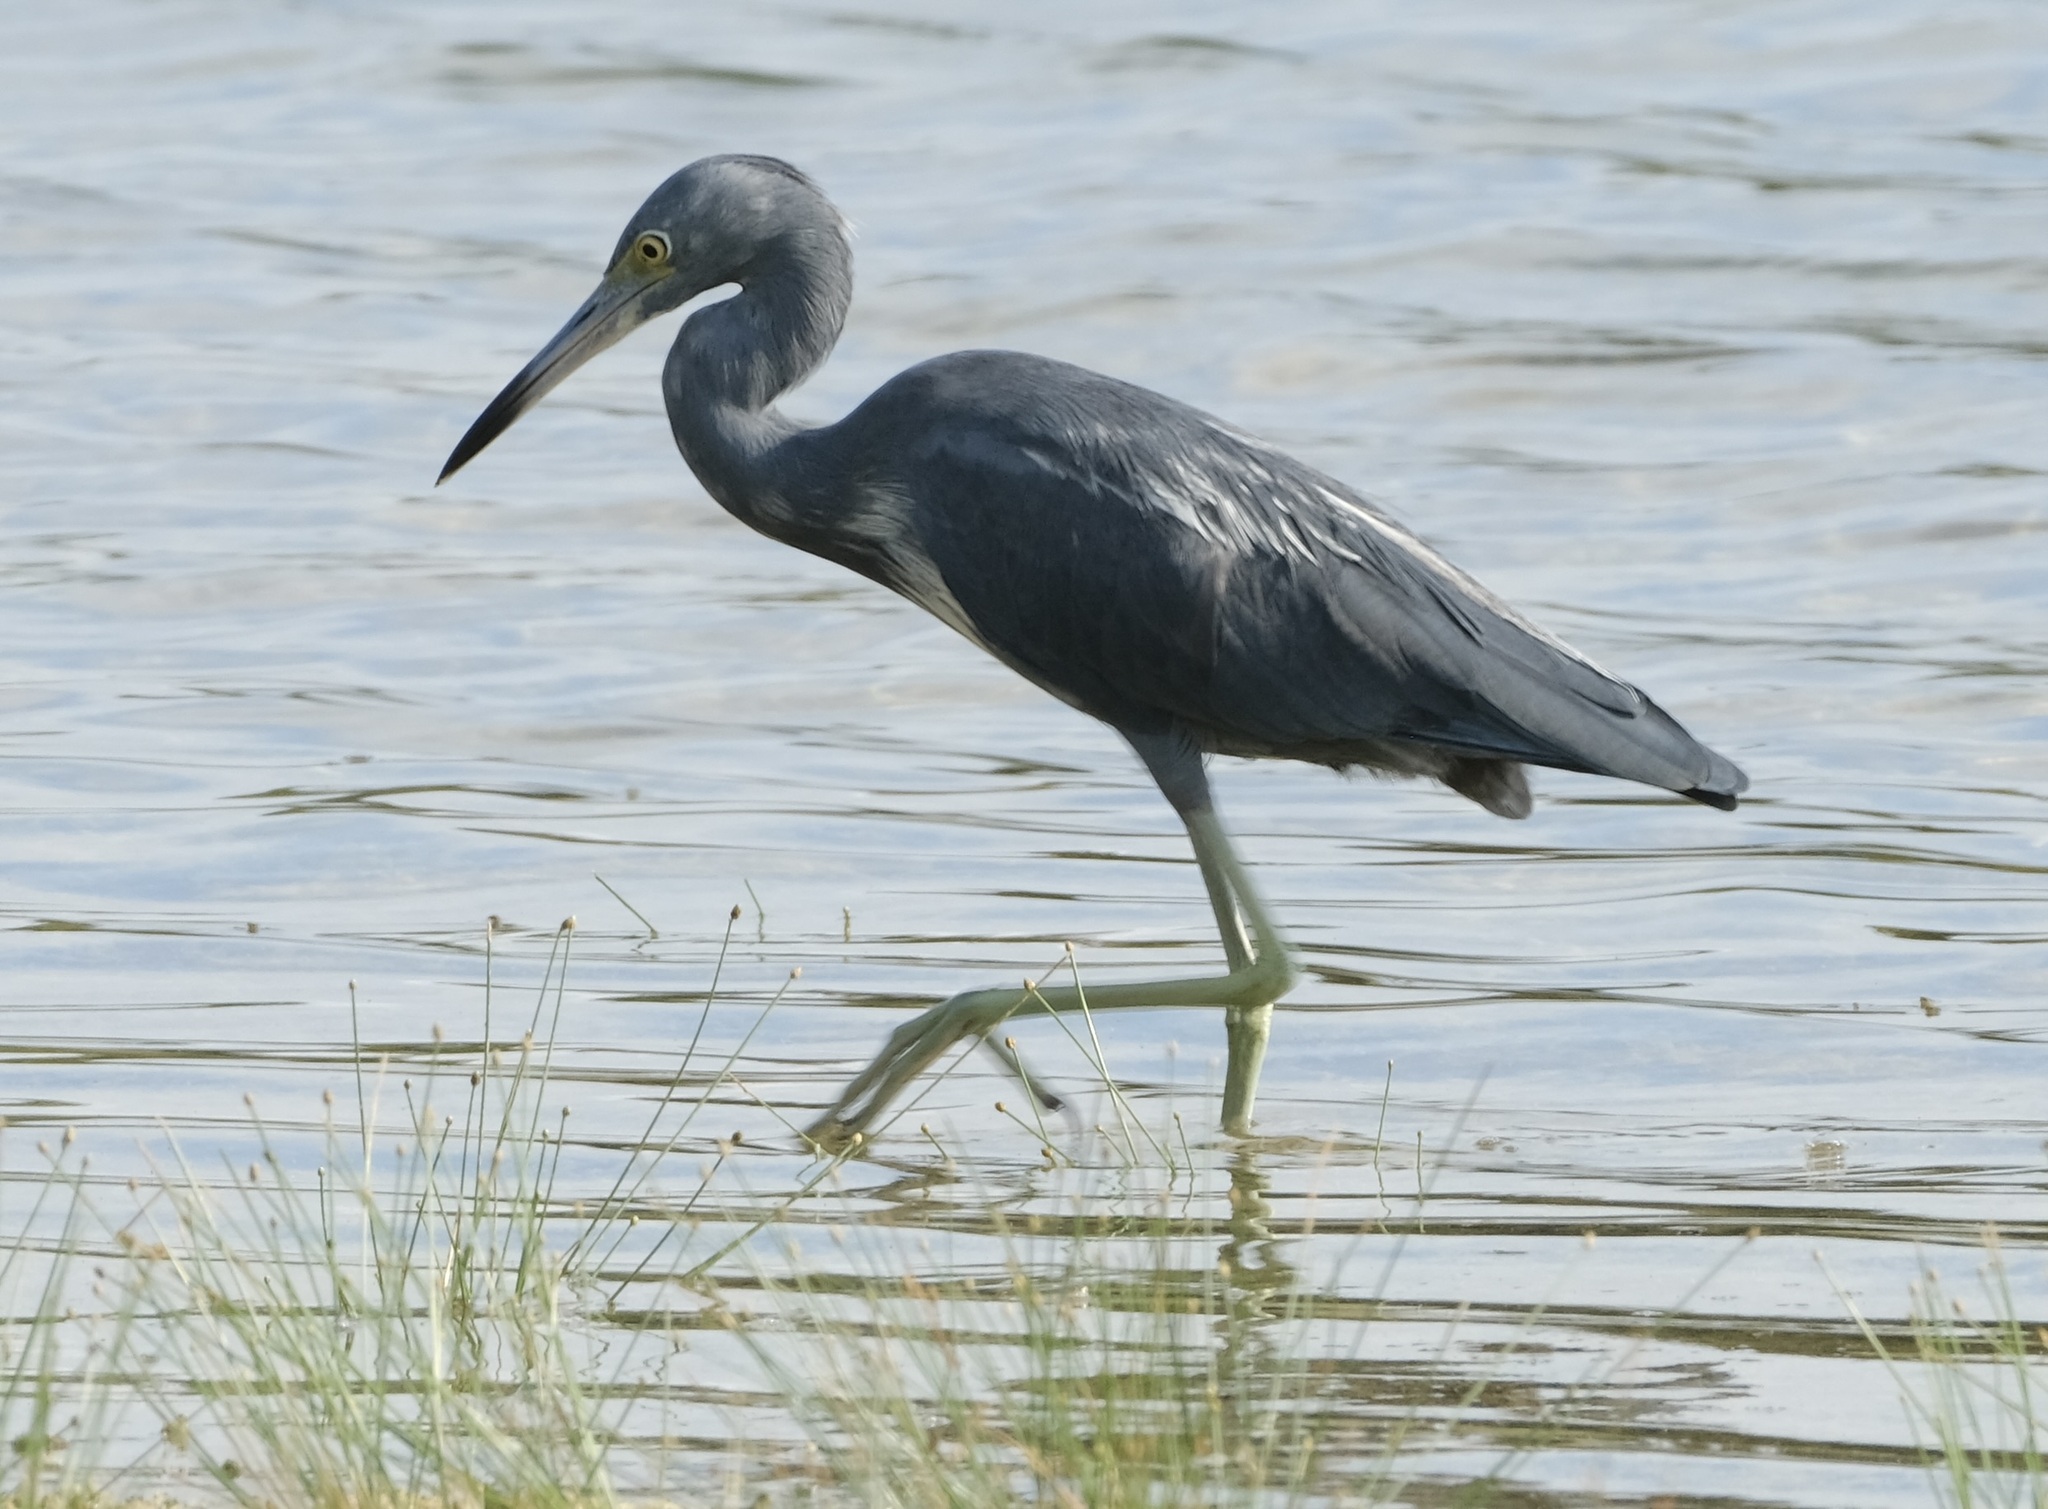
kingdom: Animalia
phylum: Chordata
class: Aves
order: Pelecaniformes
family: Ardeidae
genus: Egretta
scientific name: Egretta caerulea
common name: Little blue heron
